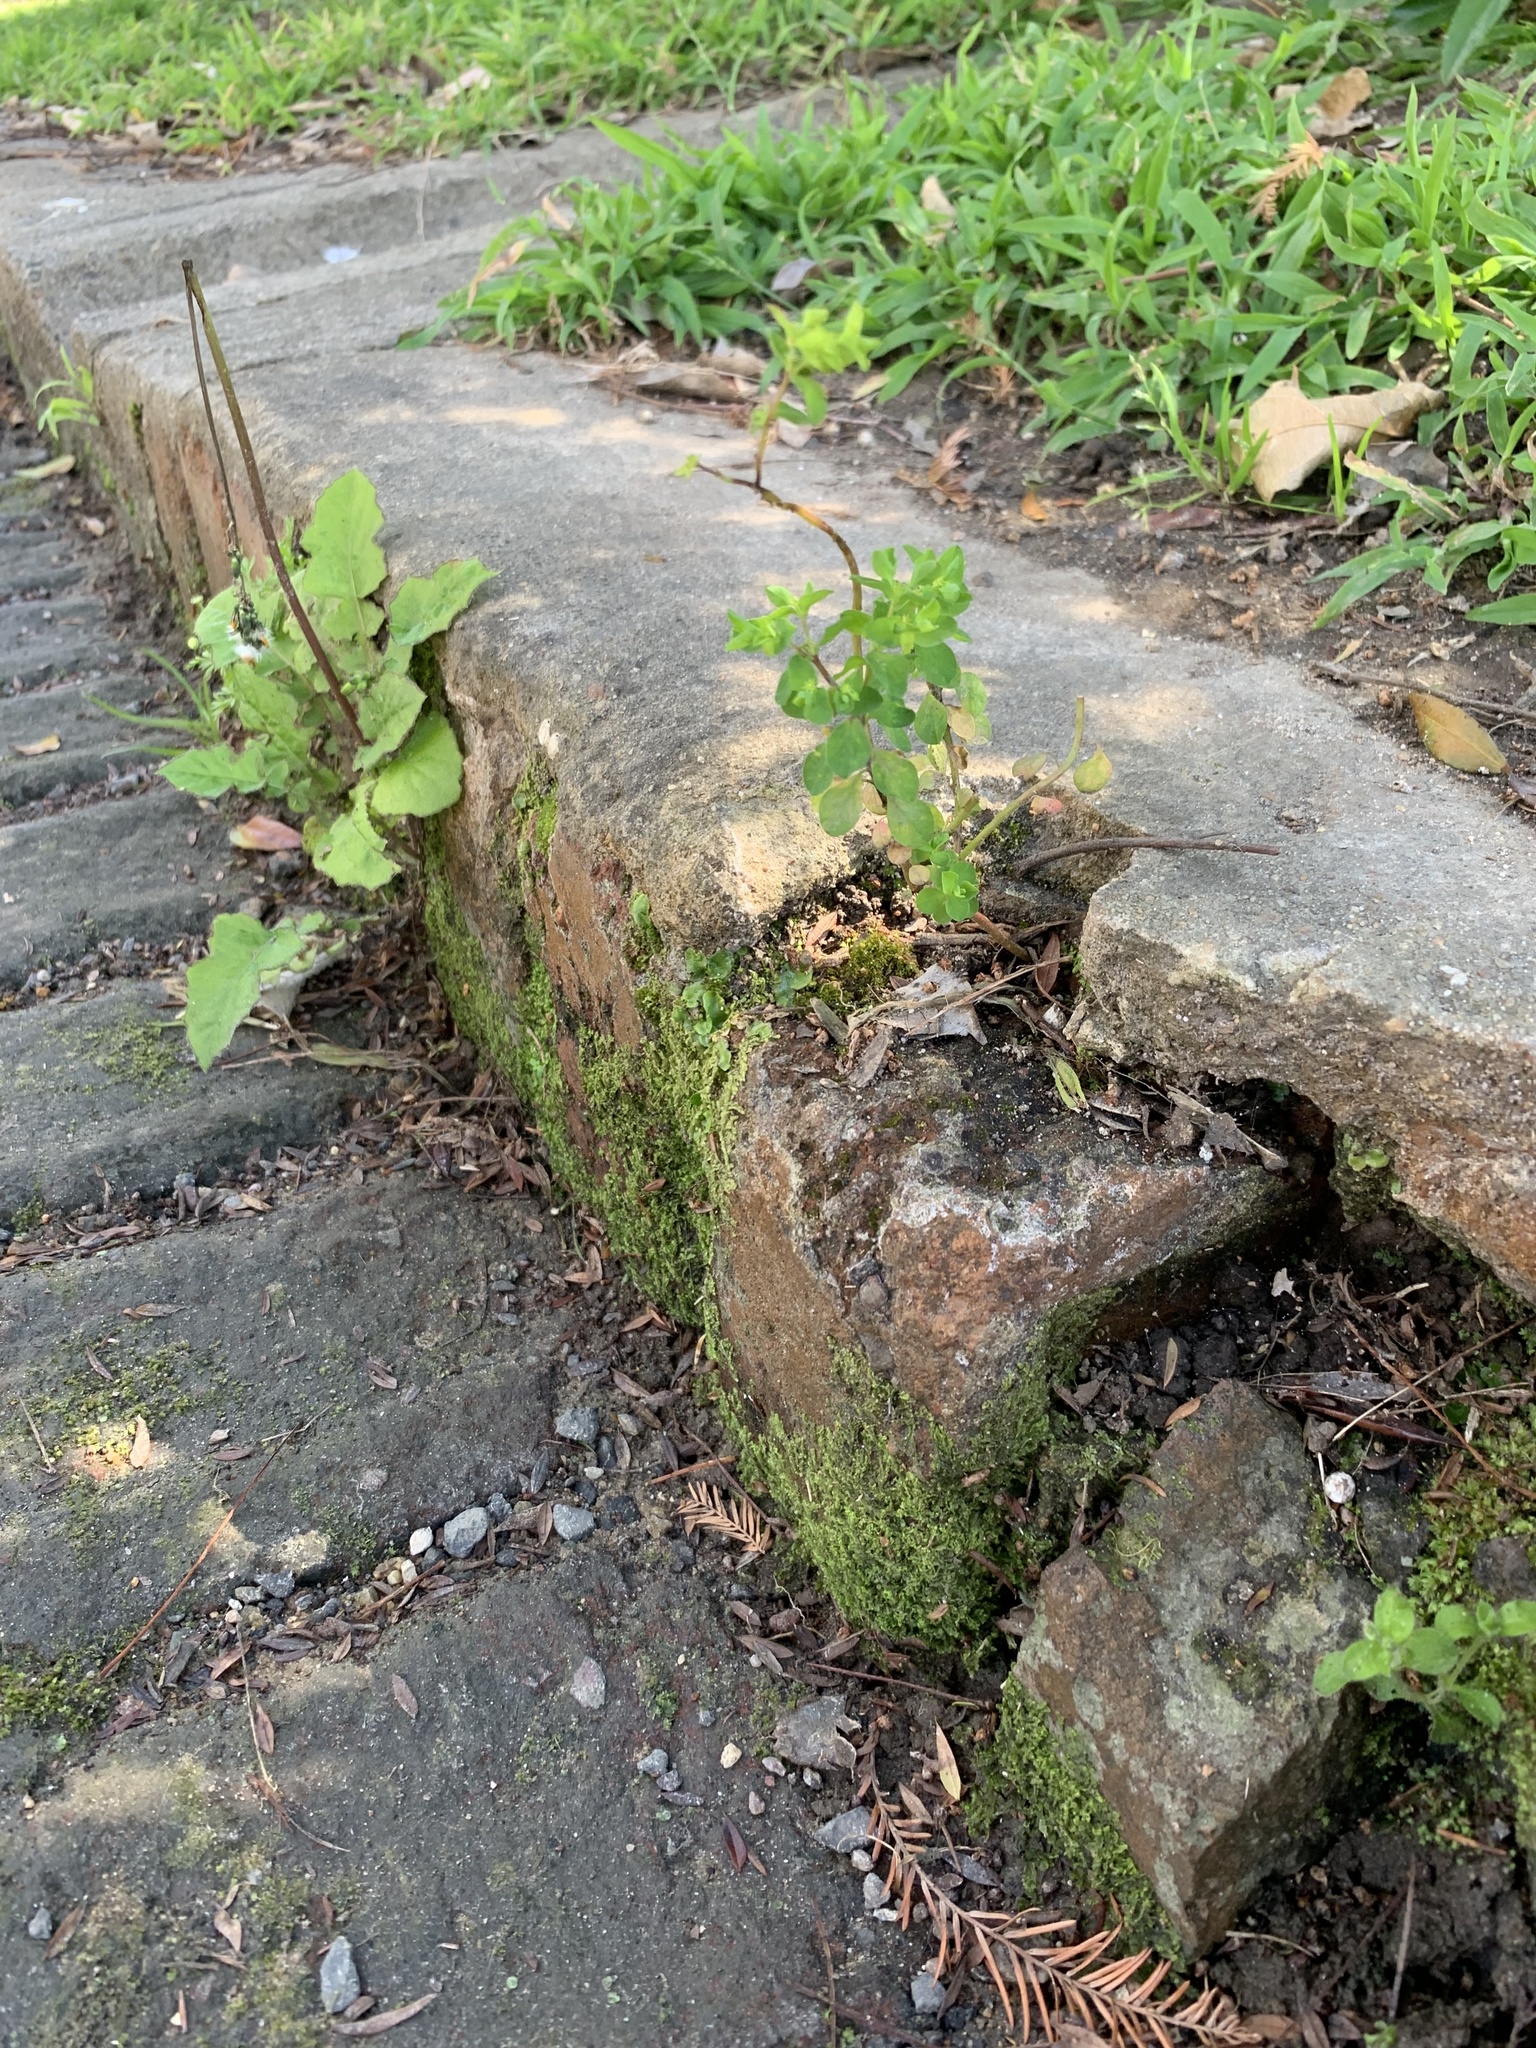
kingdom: Plantae
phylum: Tracheophyta
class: Magnoliopsida
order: Malpighiales
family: Euphorbiaceae
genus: Euphorbia
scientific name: Euphorbia peplus
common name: Petty spurge
